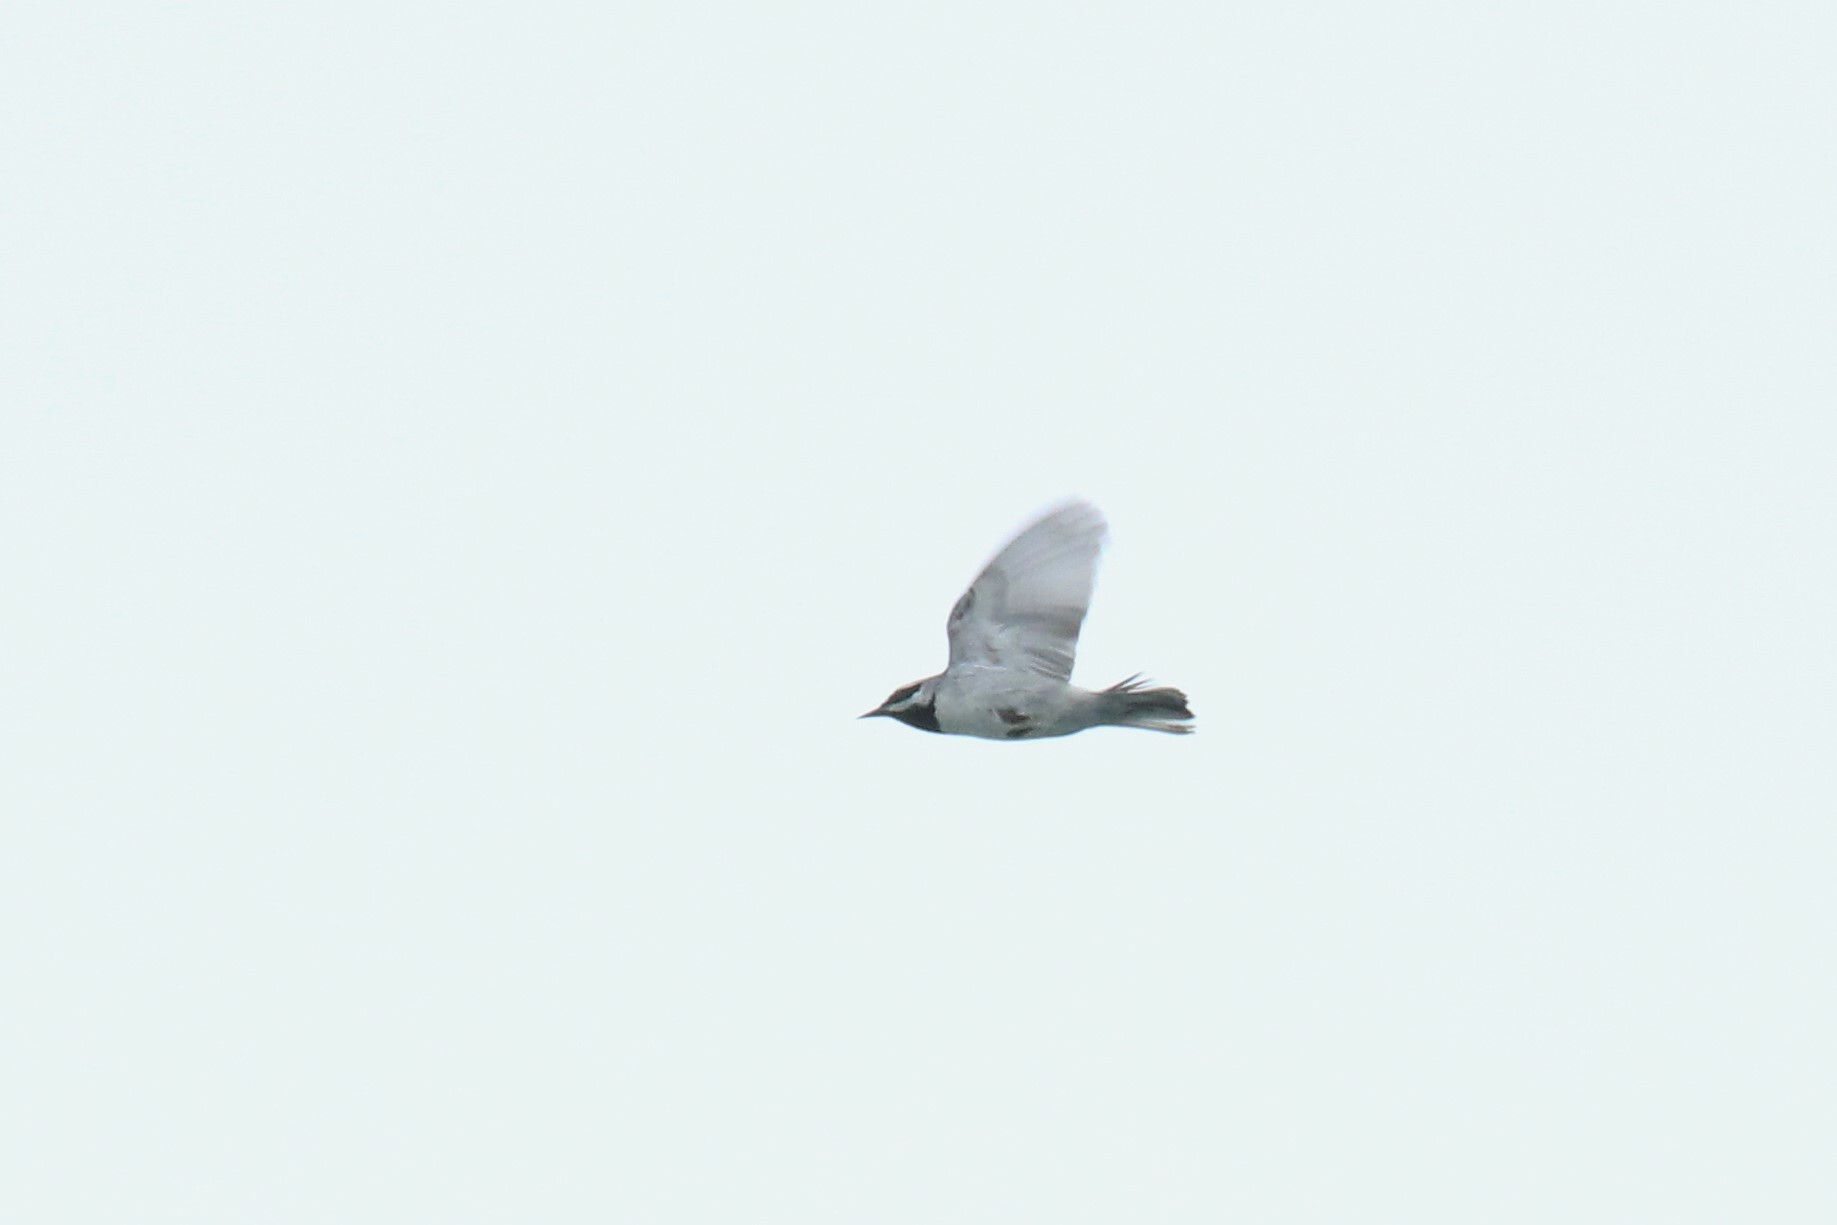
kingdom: Animalia
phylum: Chordata
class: Aves
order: Passeriformes
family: Parulidae
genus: Vermivora
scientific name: Vermivora chrysoptera
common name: Golden-winged warbler
